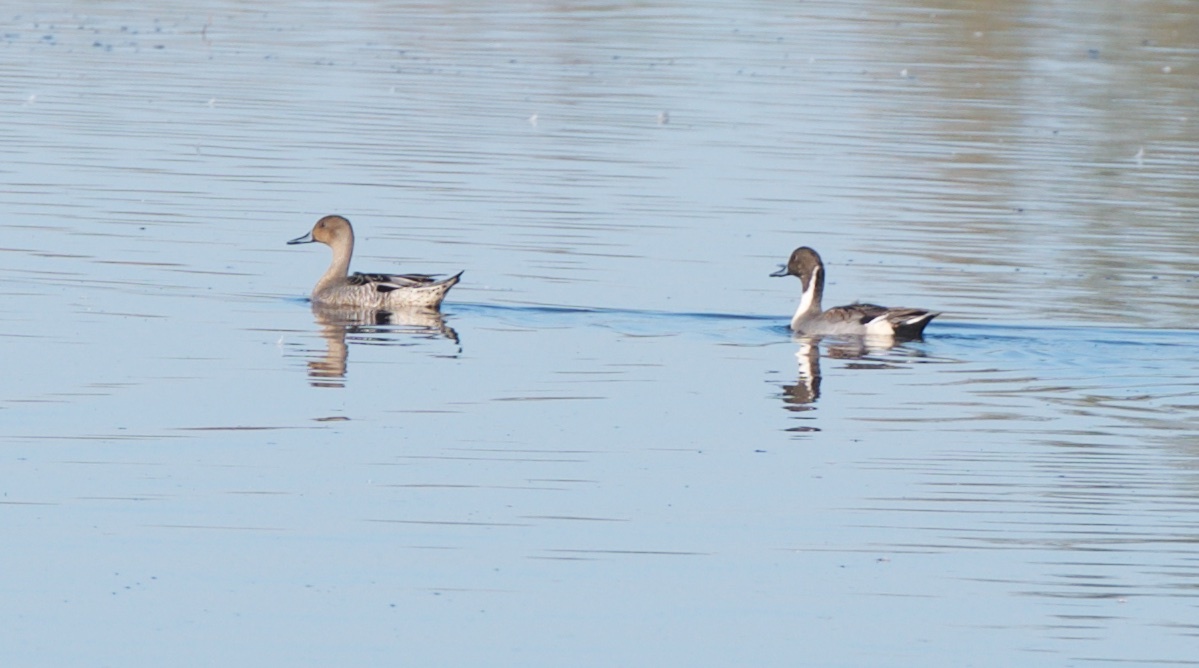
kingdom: Animalia
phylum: Chordata
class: Aves
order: Anseriformes
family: Anatidae
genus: Anas
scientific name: Anas acuta
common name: Northern pintail
